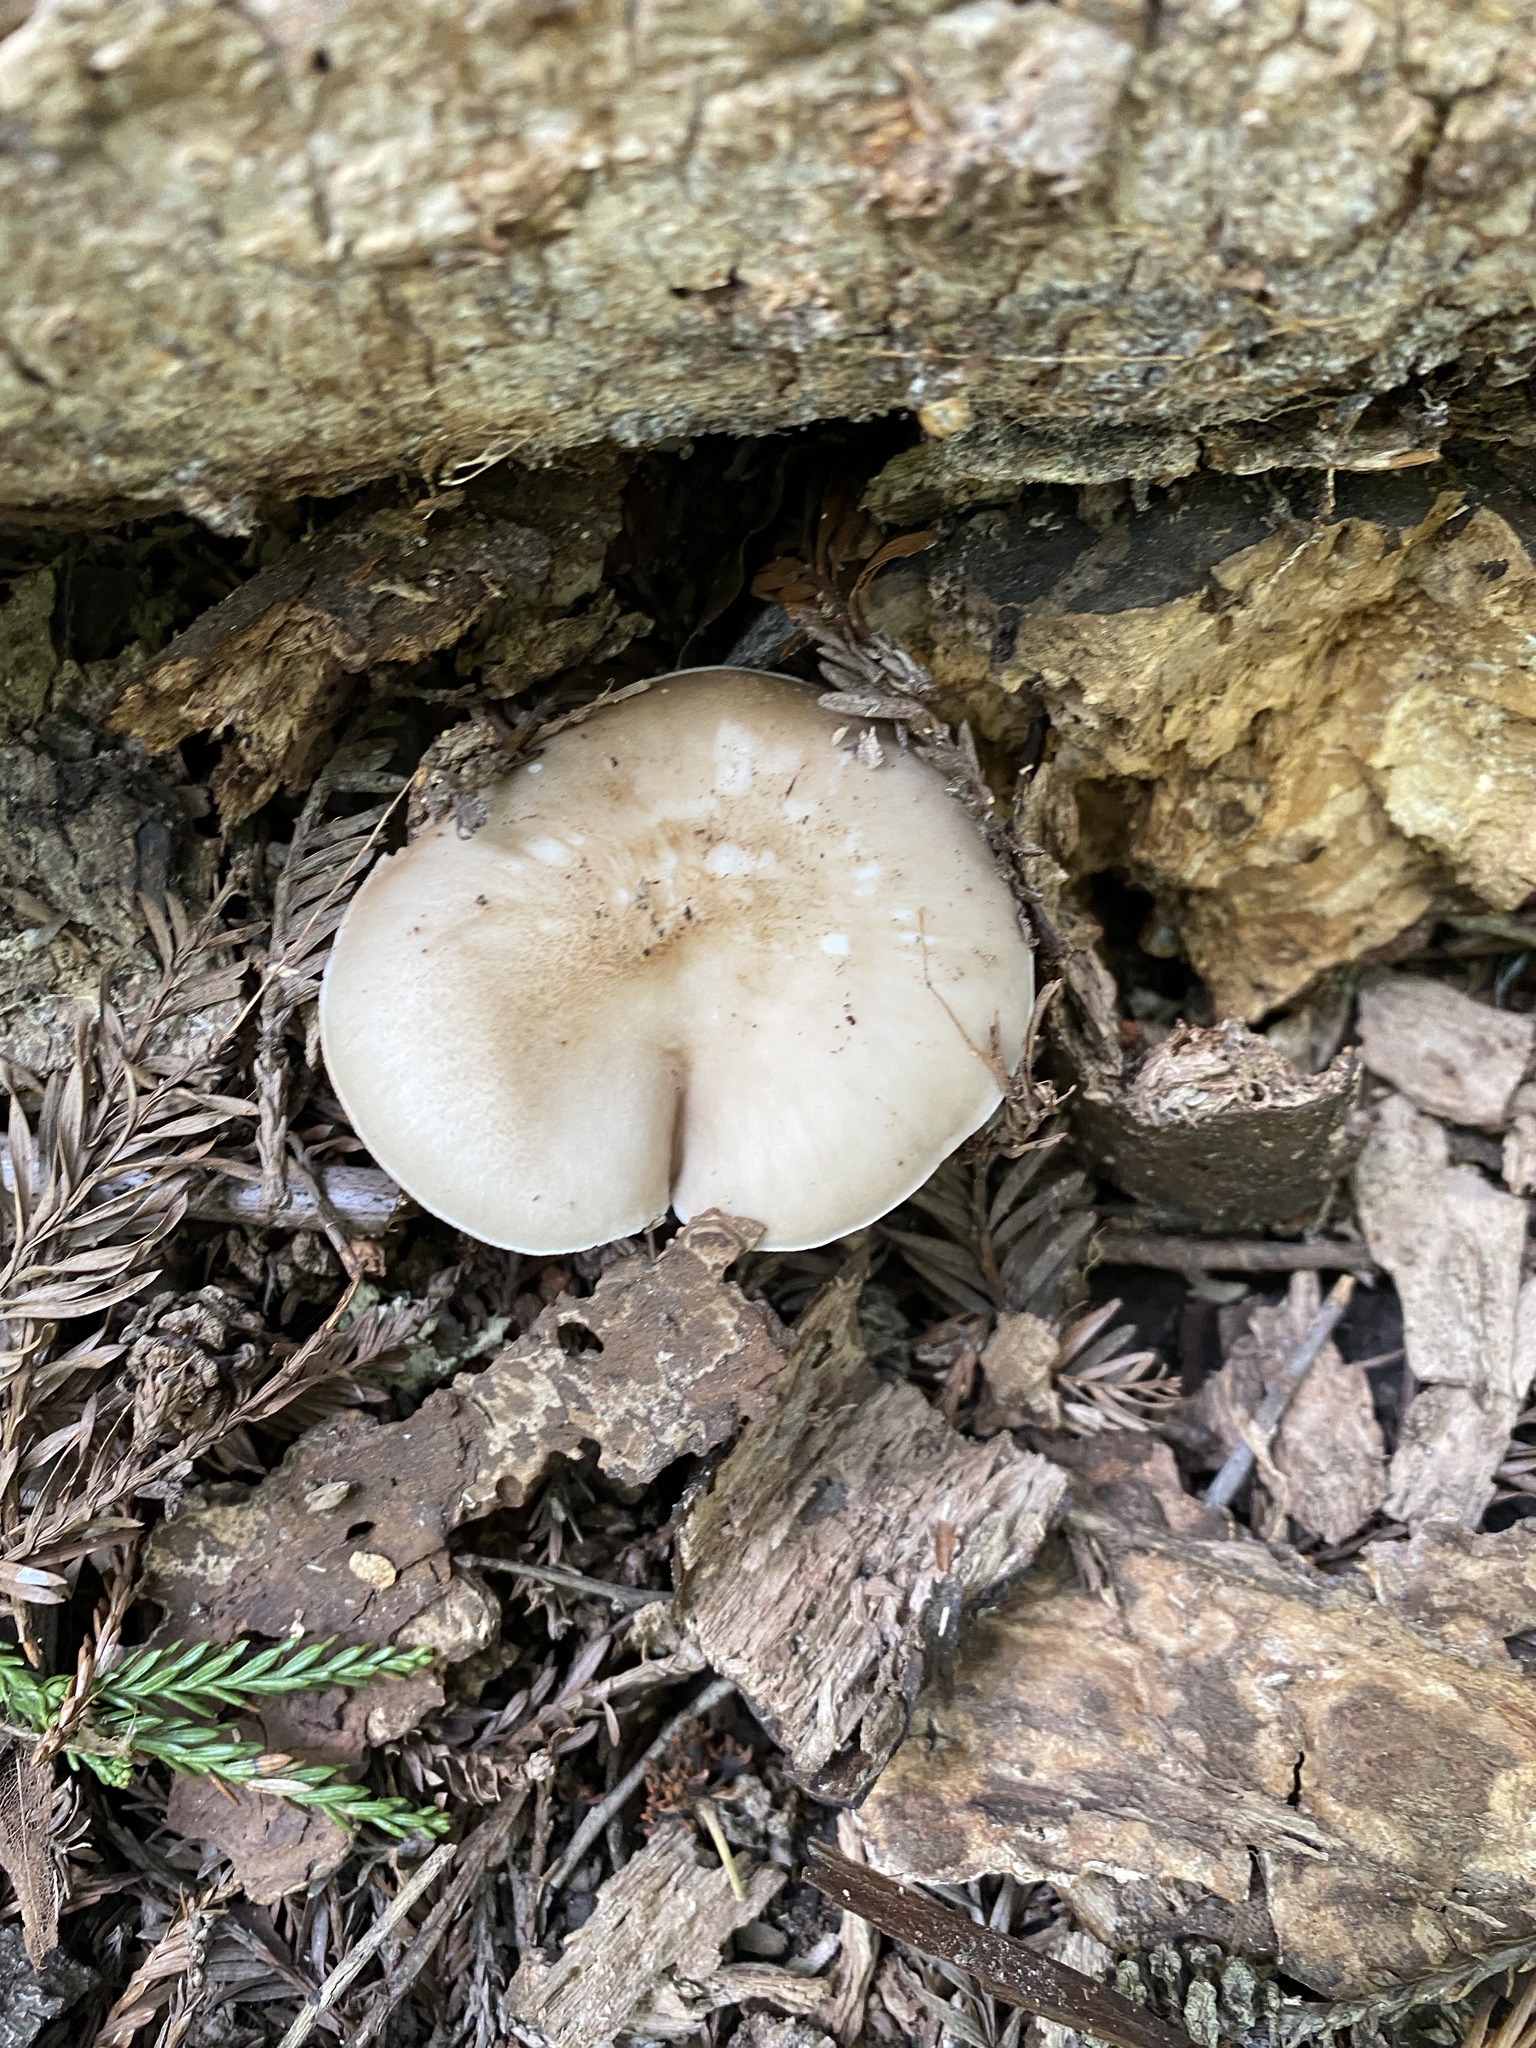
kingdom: Fungi
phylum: Basidiomycota
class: Agaricomycetes
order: Agaricales
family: Pluteaceae
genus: Pluteus
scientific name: Pluteus cervinus
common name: Deer shield
